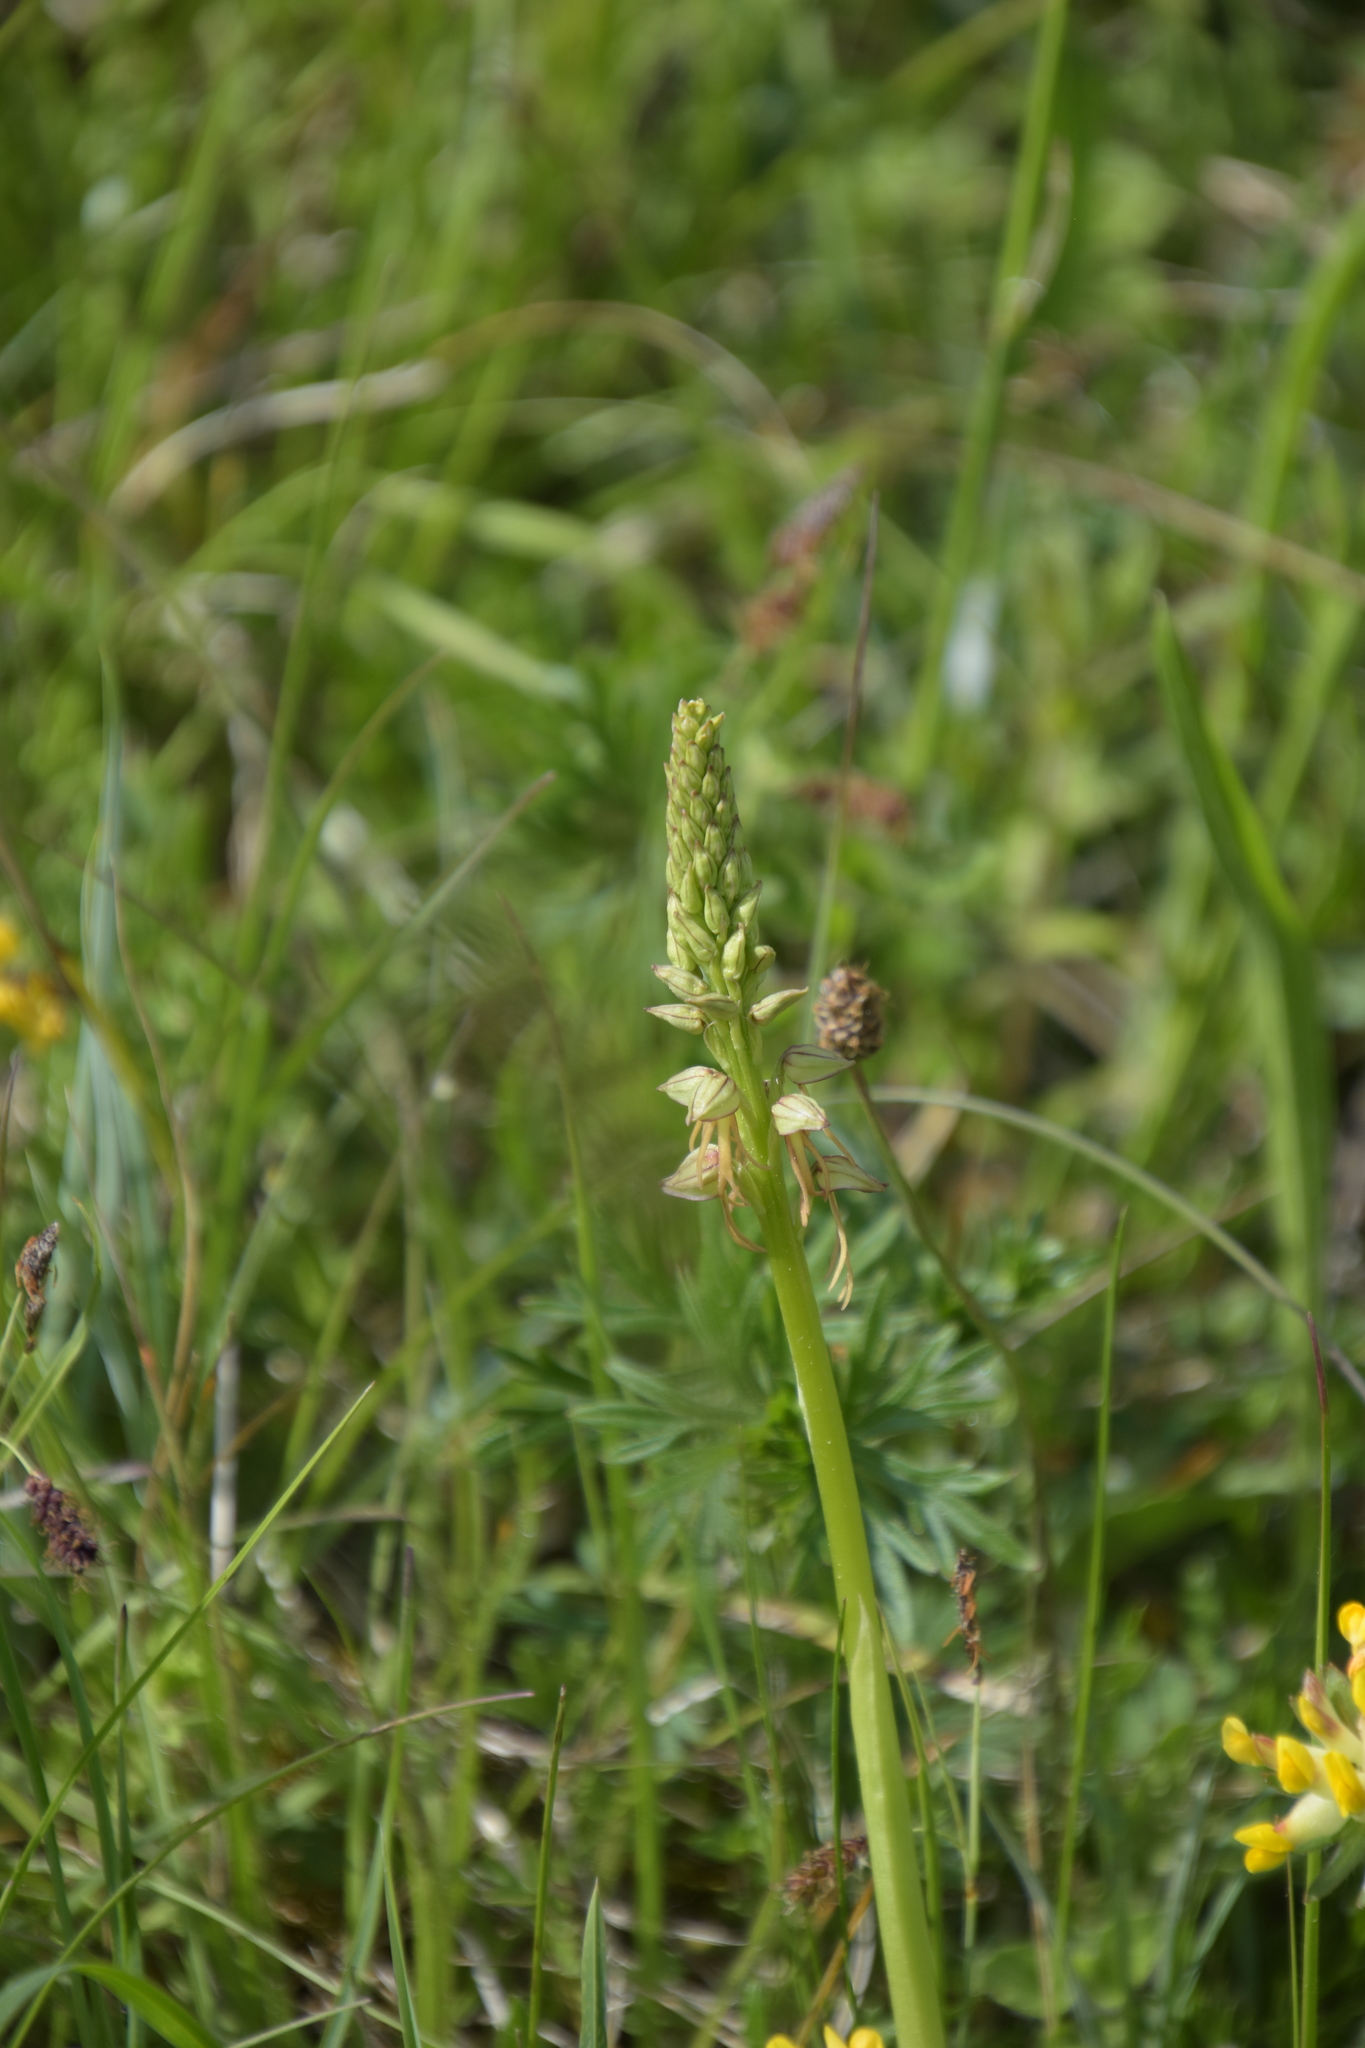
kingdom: Plantae
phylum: Tracheophyta
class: Liliopsida
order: Asparagales
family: Orchidaceae
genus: Orchis
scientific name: Orchis anthropophora
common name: Man orchid
